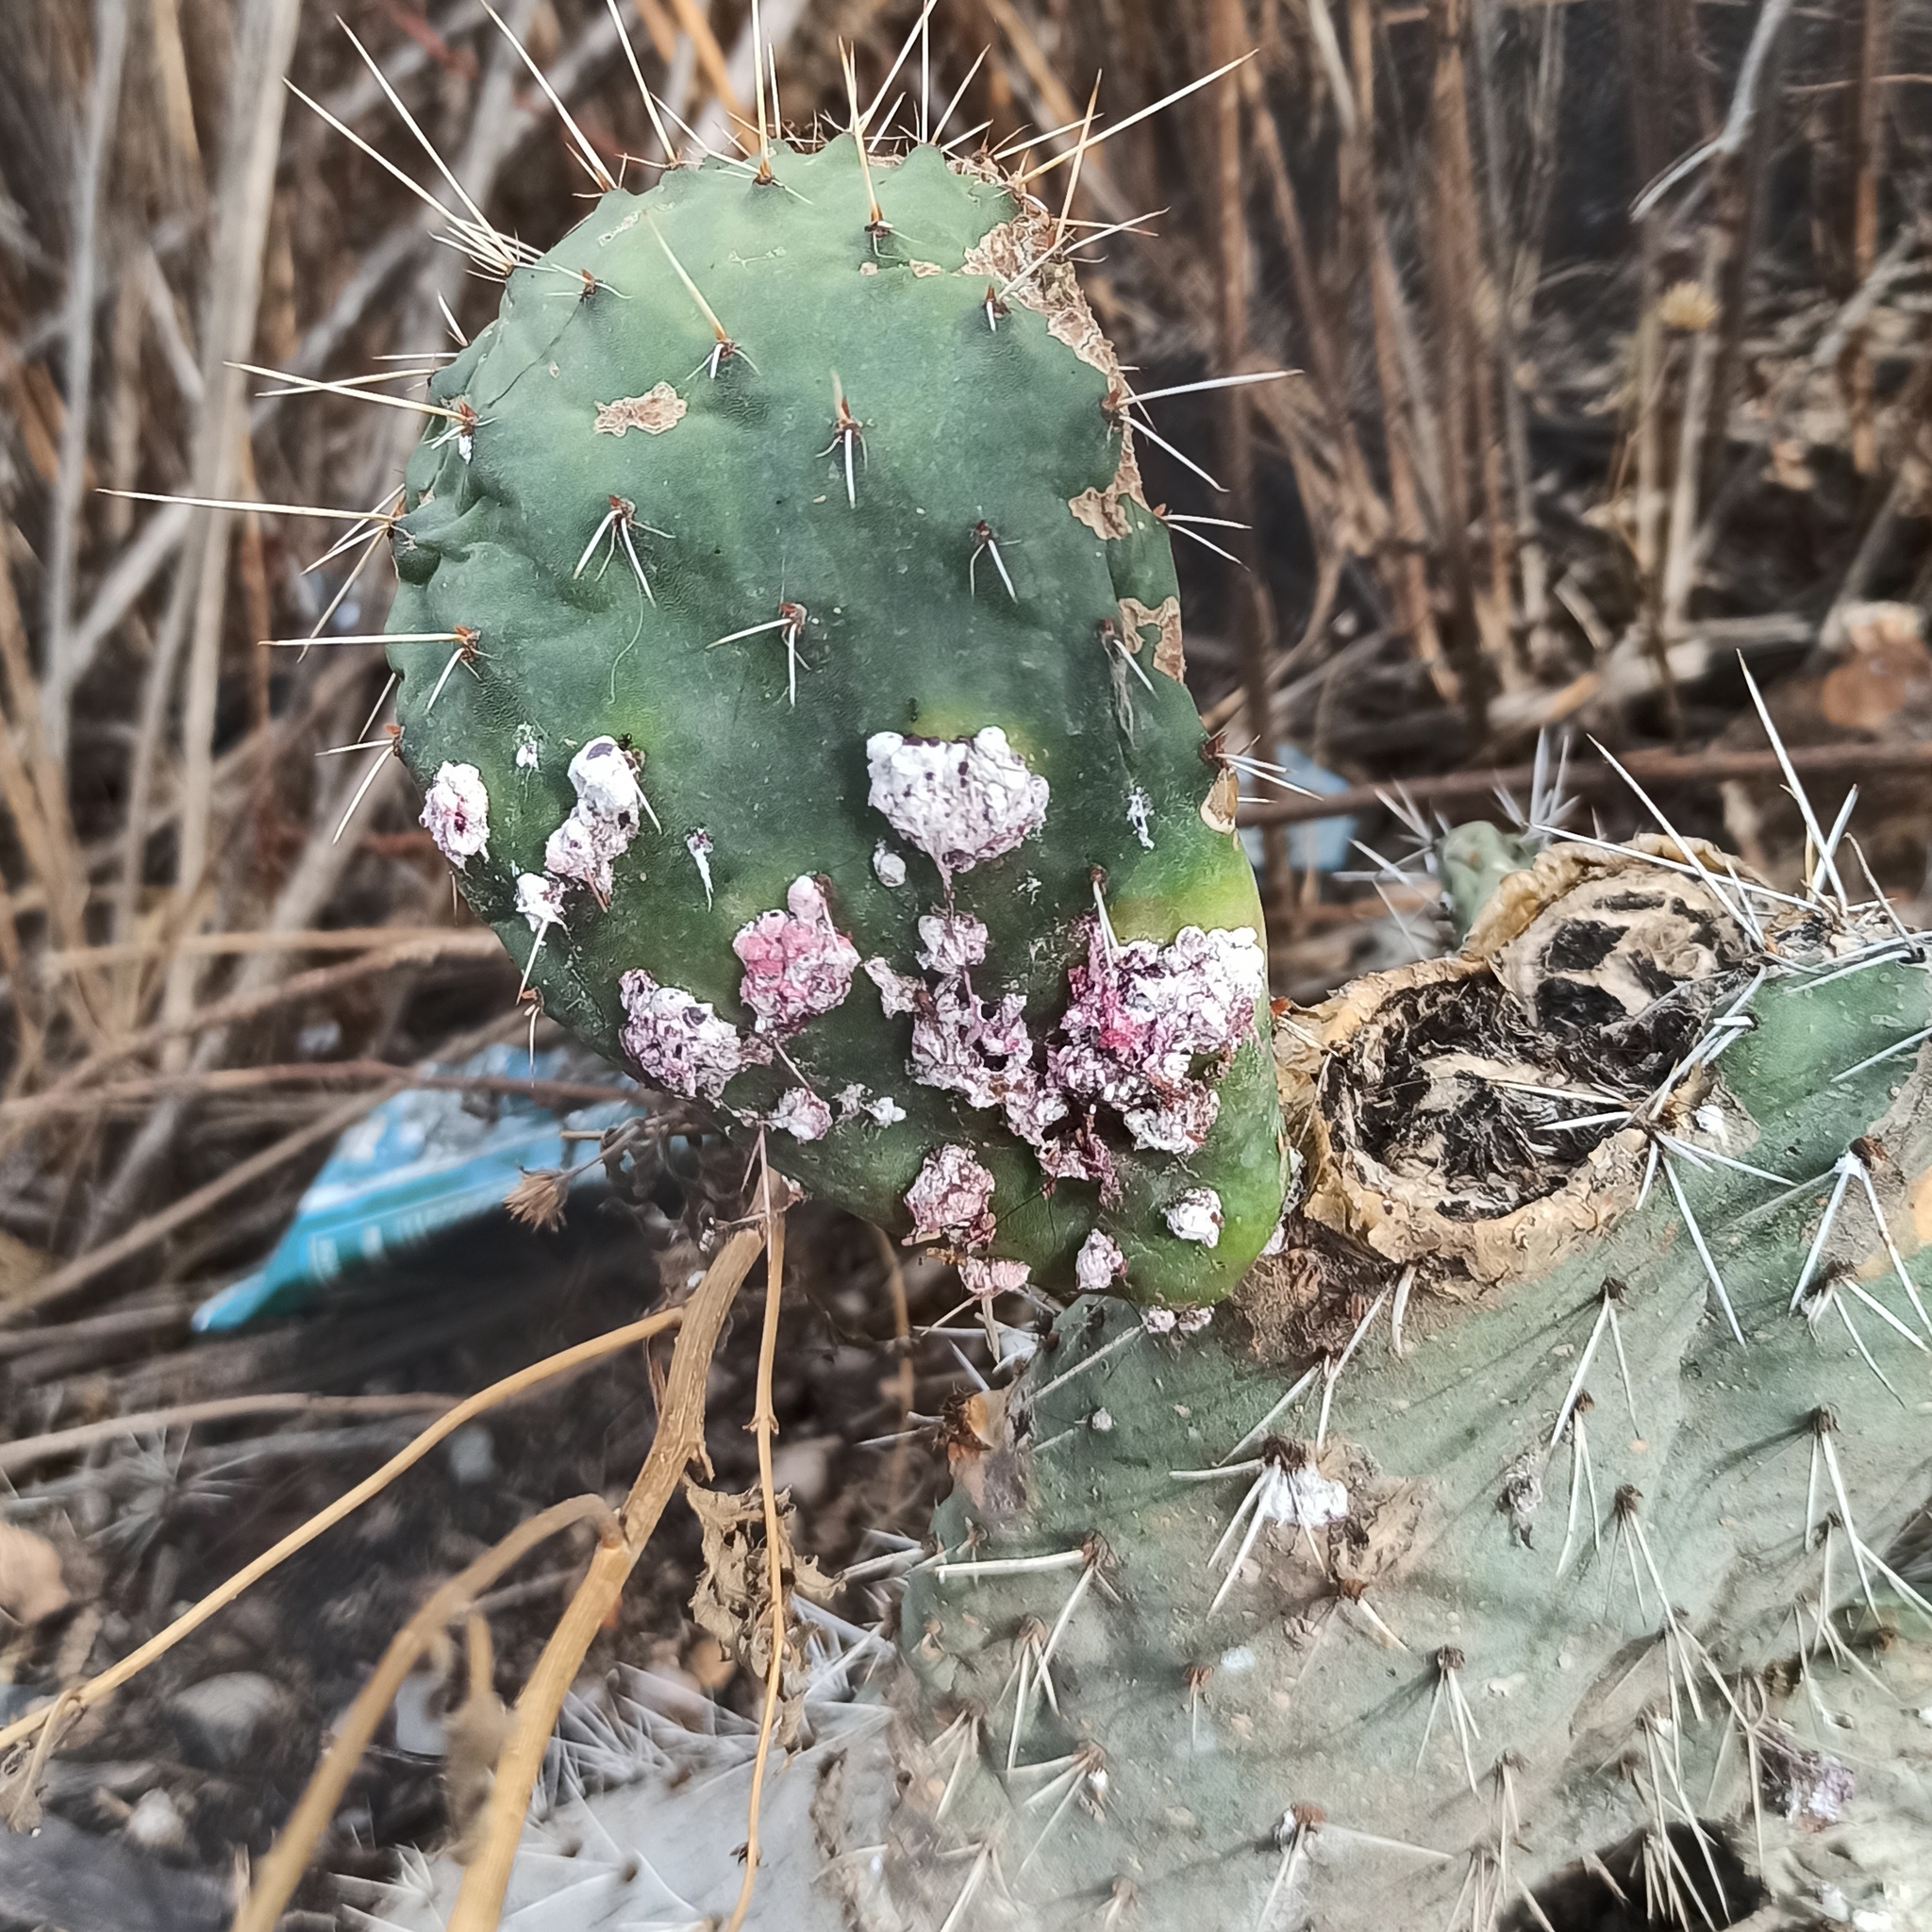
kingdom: Animalia
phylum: Arthropoda
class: Insecta
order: Hemiptera
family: Dactylopiidae
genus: Dactylopius
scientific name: Dactylopius coccus
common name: Cochineal
